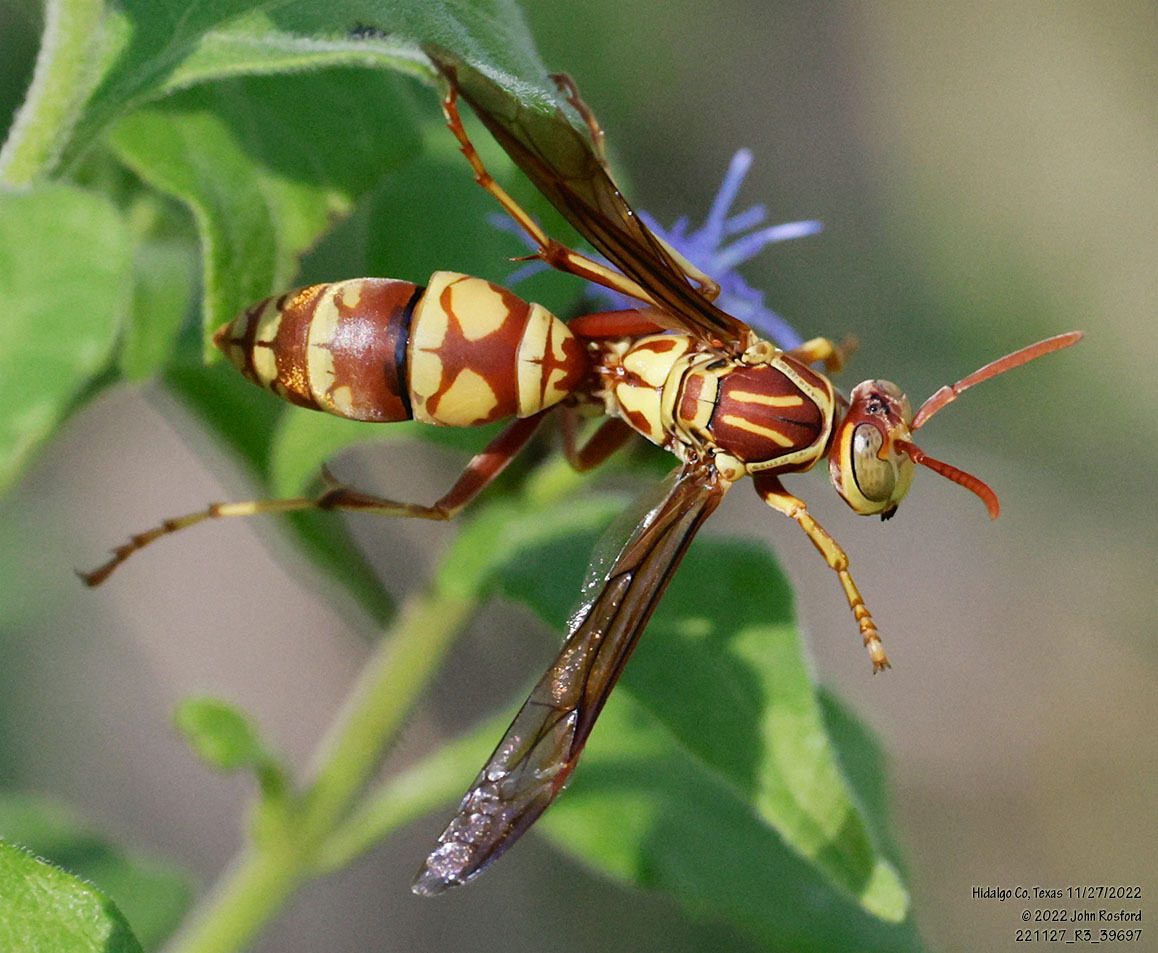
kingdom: Animalia
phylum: Arthropoda
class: Insecta
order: Hymenoptera
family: Eumenidae
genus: Polistes
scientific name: Polistes apachus
